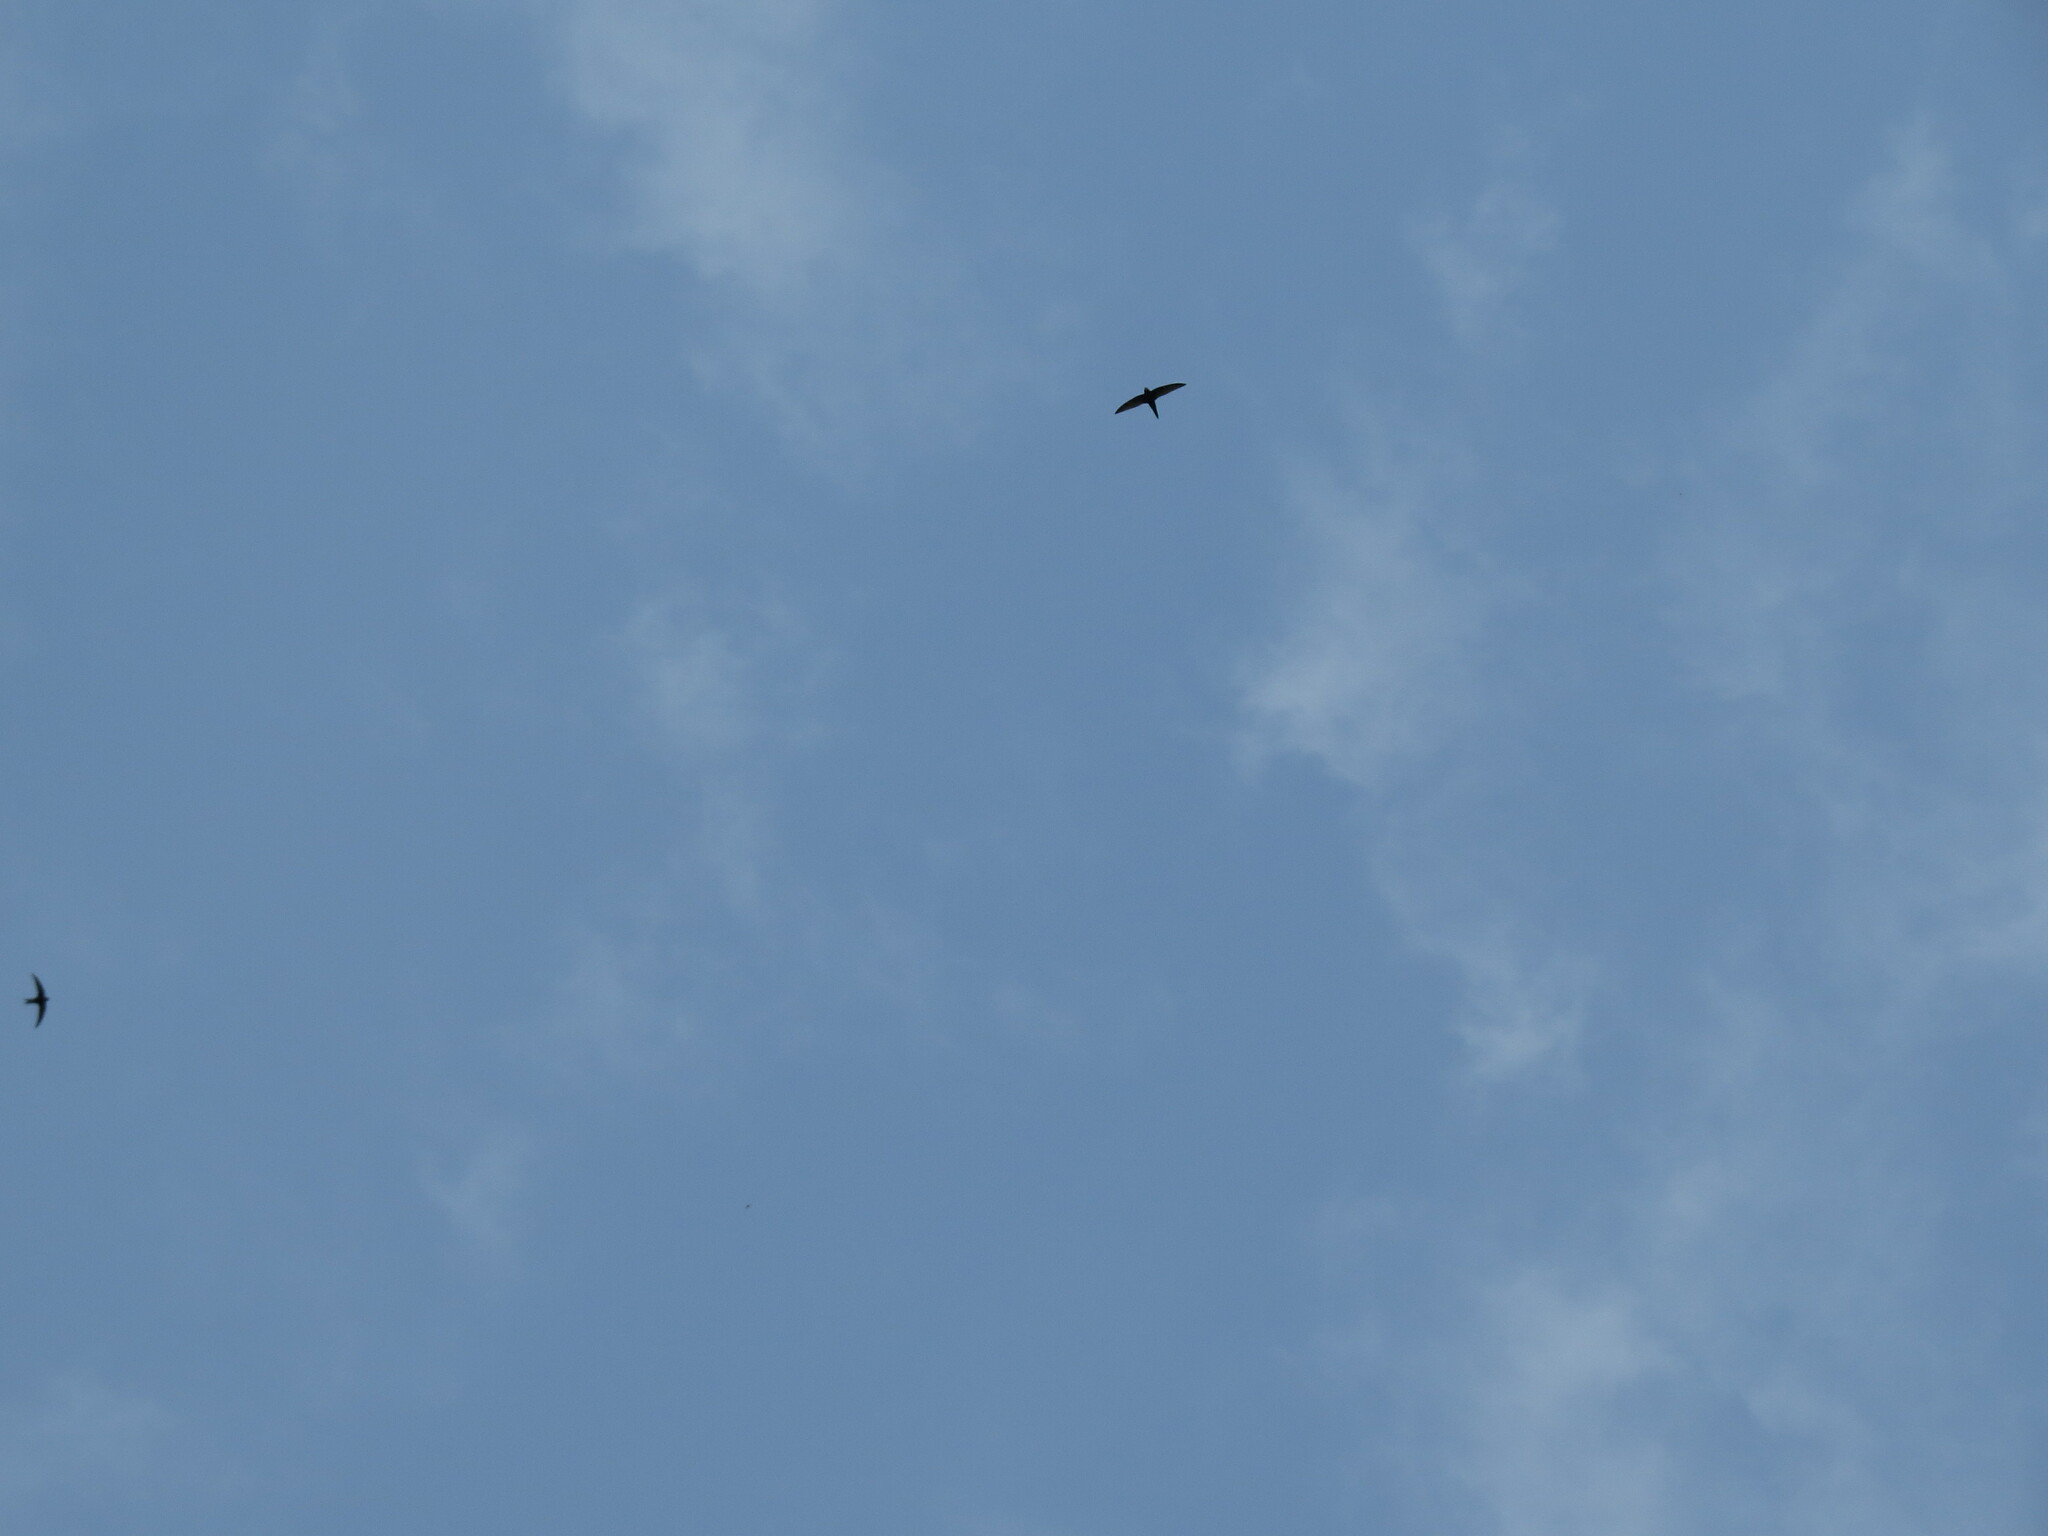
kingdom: Animalia
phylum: Chordata
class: Aves
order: Apodiformes
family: Apodidae
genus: Apus
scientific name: Apus apus
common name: Common swift
